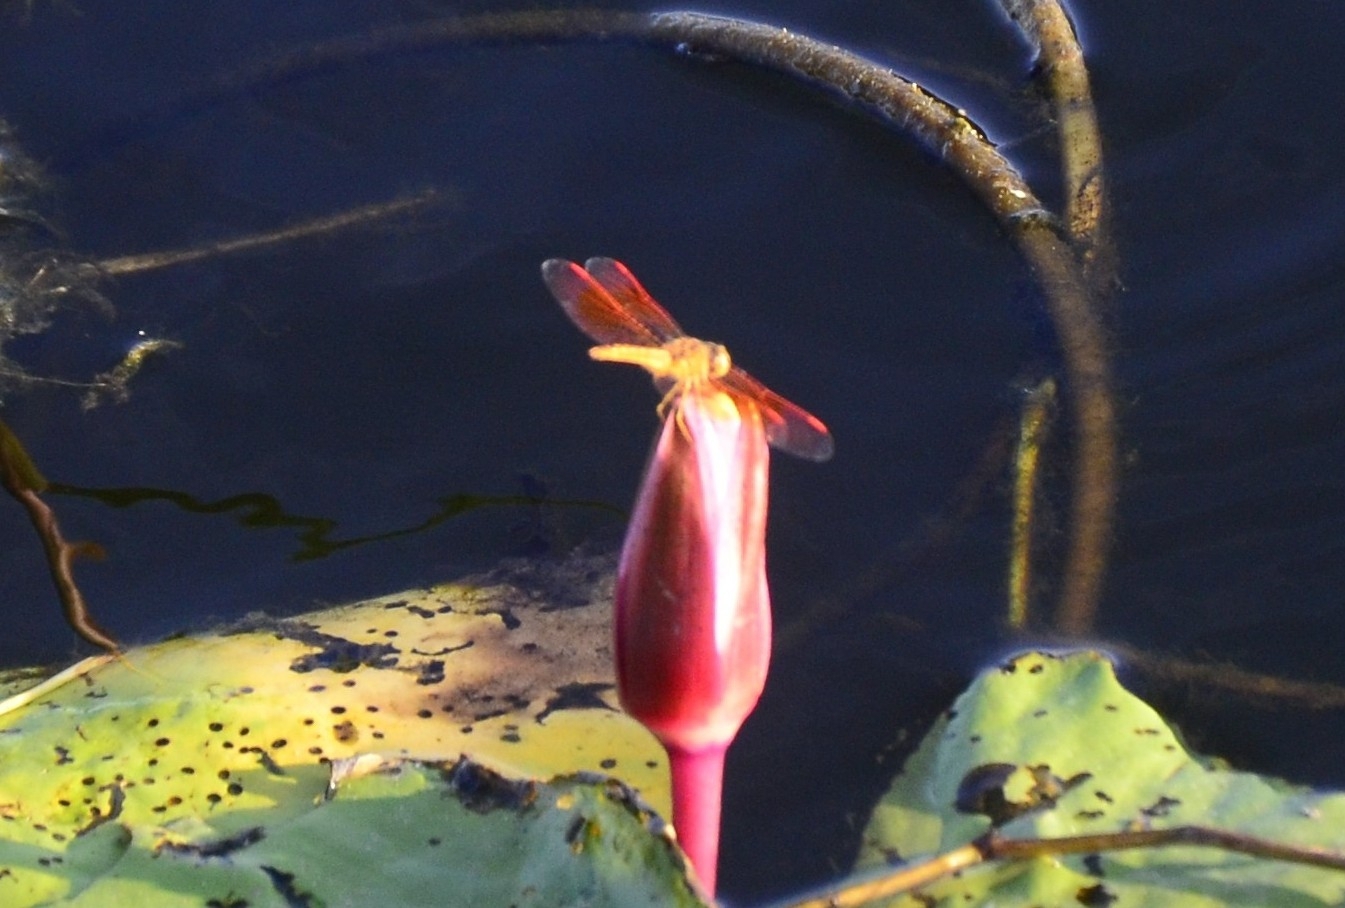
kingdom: Animalia
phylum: Arthropoda
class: Insecta
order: Odonata
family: Libellulidae
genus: Brachythemis
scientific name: Brachythemis contaminata
